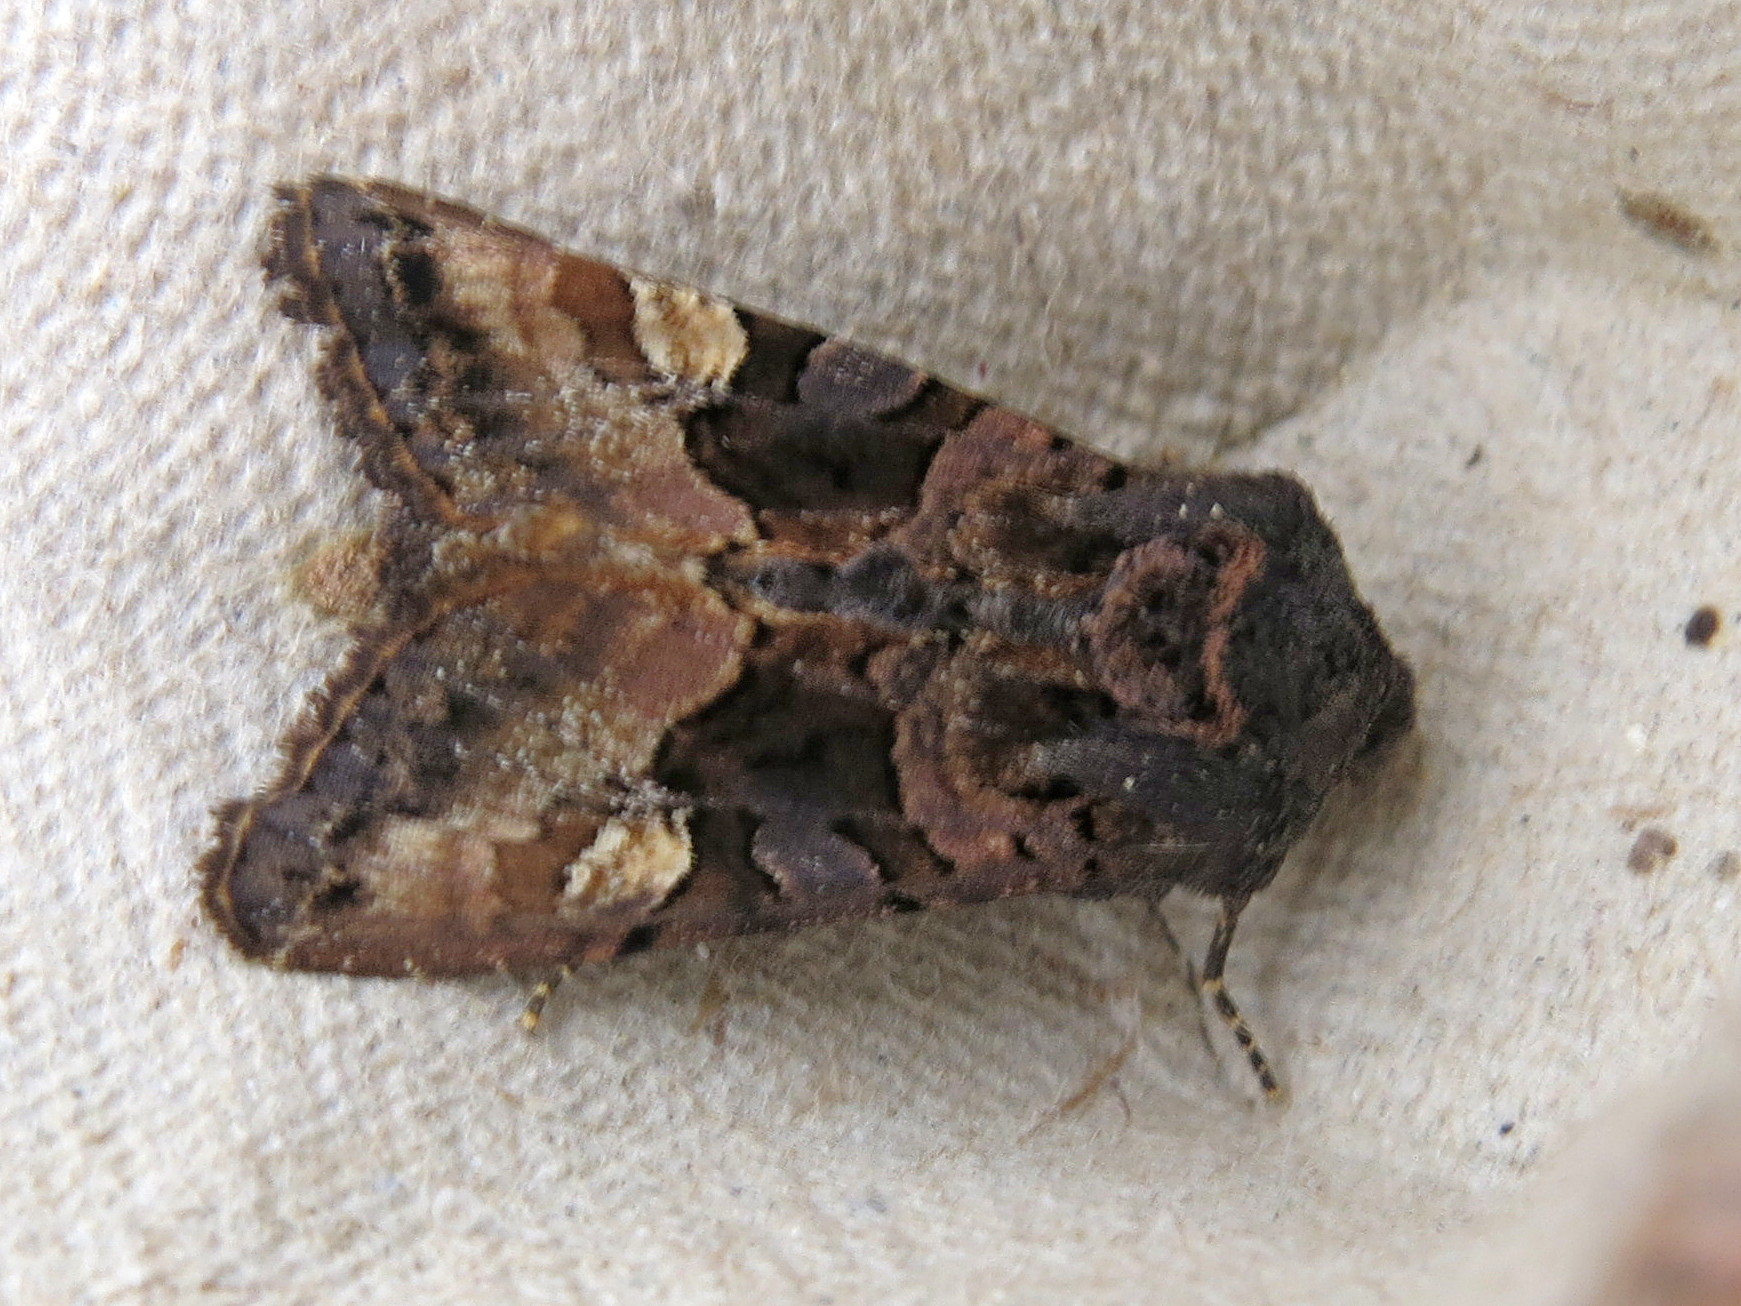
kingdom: Animalia
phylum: Arthropoda
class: Insecta
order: Lepidoptera
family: Noctuidae
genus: Euplexia
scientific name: Euplexia lucipara
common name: Small angle shades
